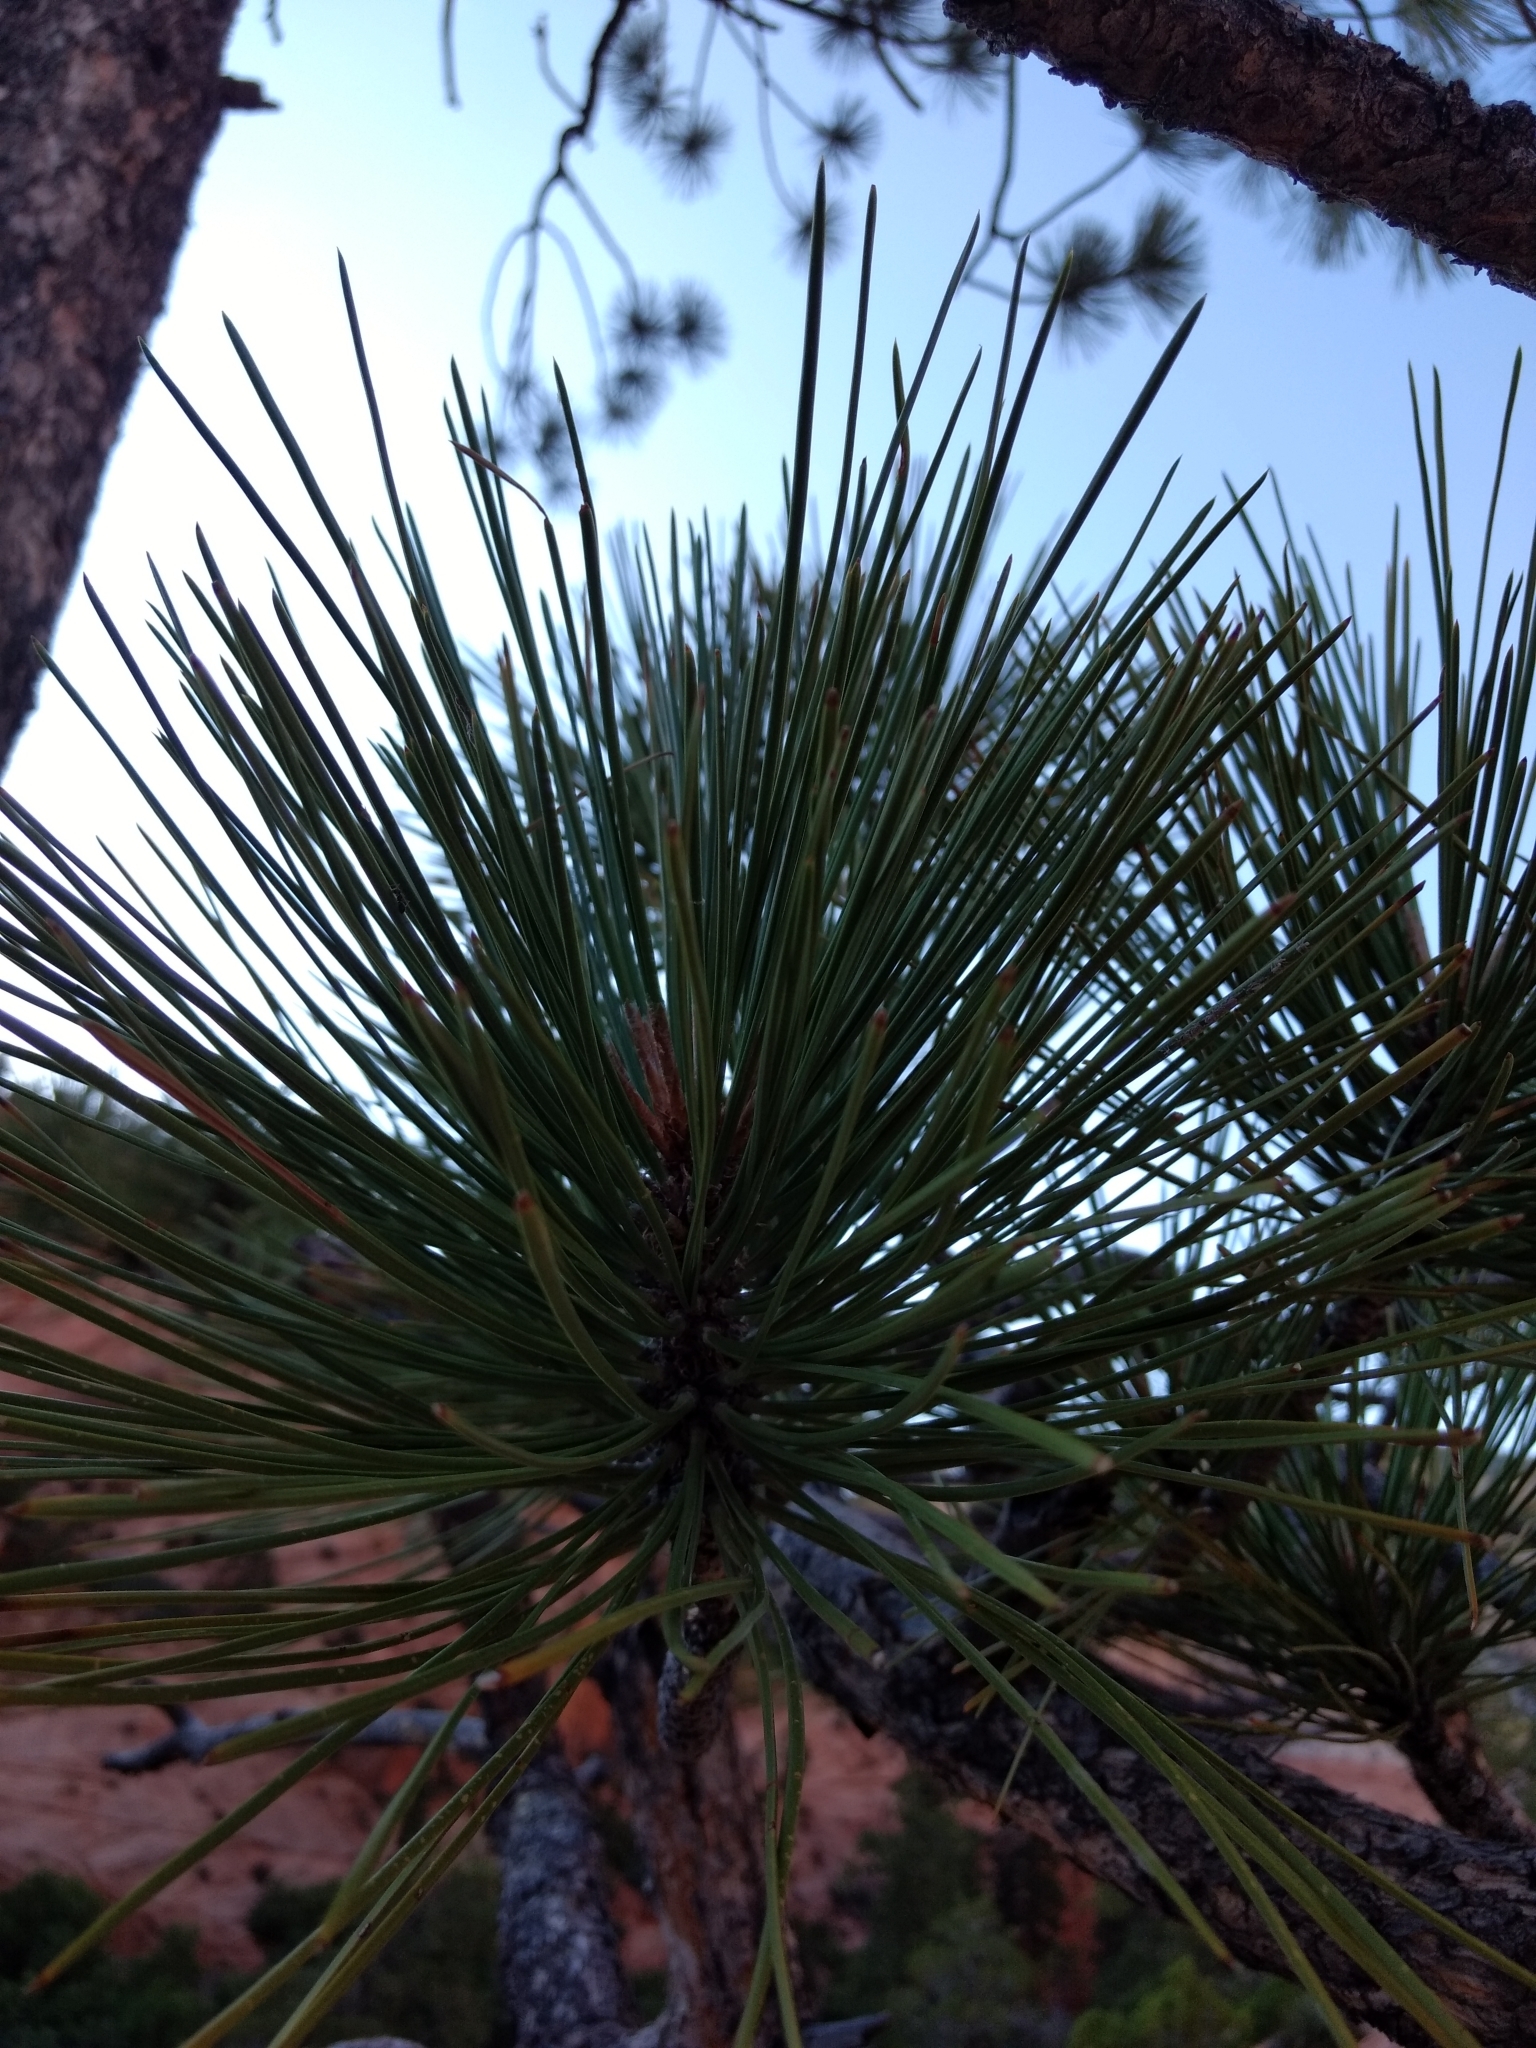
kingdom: Plantae
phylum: Tracheophyta
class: Pinopsida
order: Pinales
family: Pinaceae
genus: Pinus
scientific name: Pinus ponderosa
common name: Western yellow-pine
